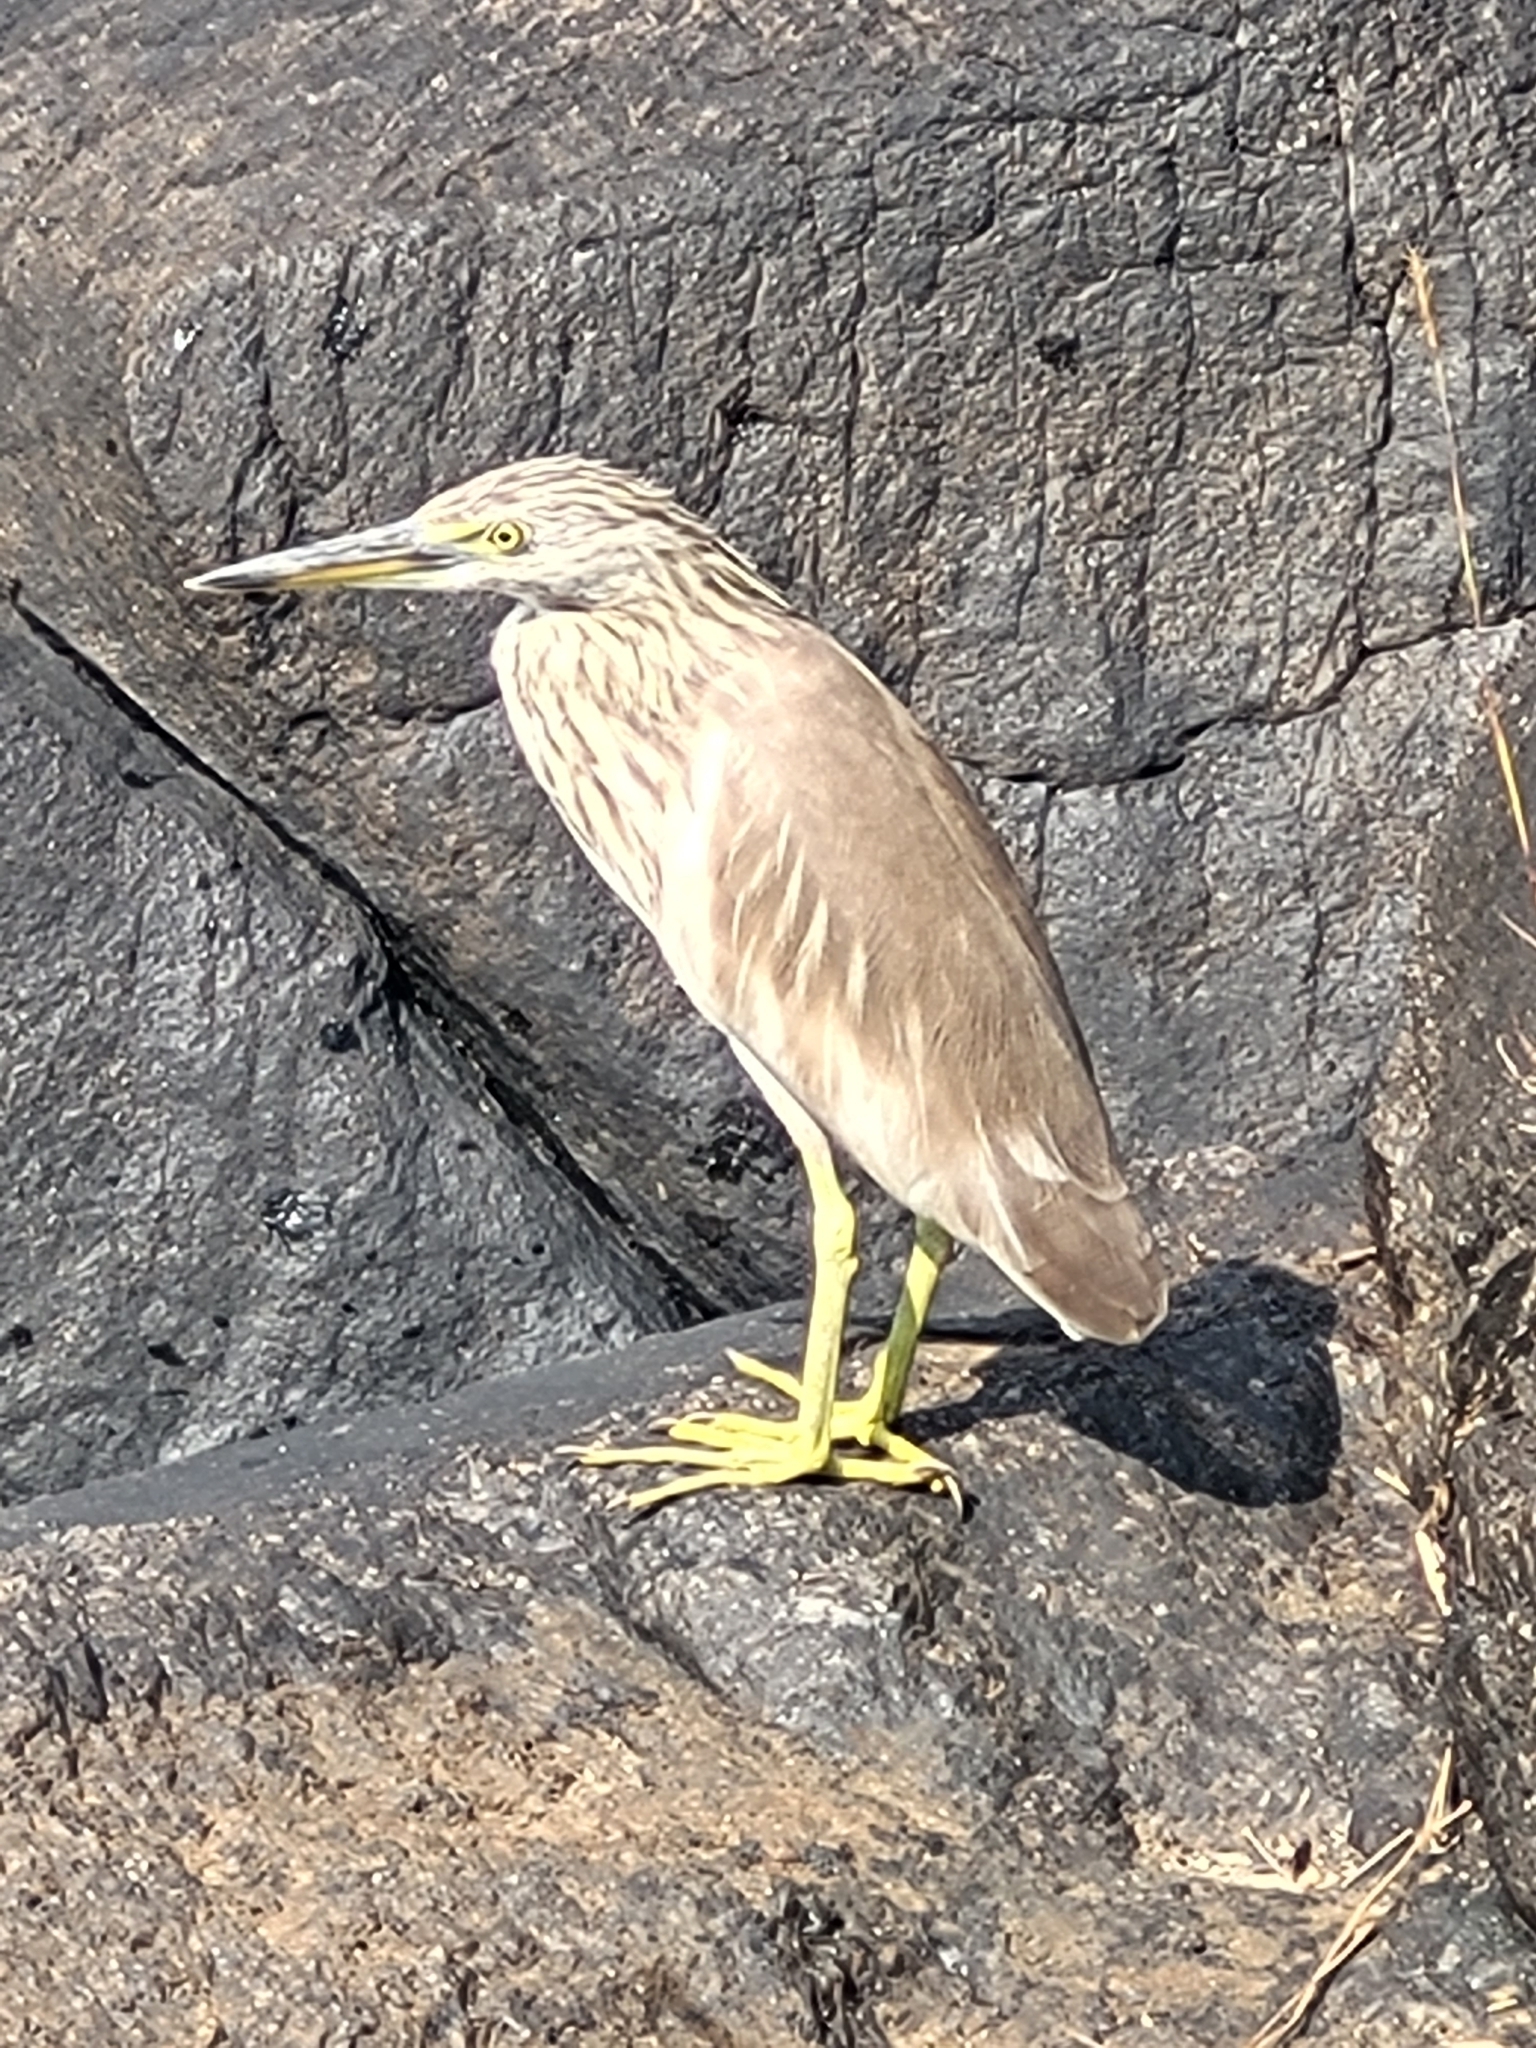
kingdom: Animalia
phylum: Chordata
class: Aves
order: Pelecaniformes
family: Ardeidae
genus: Ardeola
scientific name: Ardeola grayii
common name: Indian pond heron
